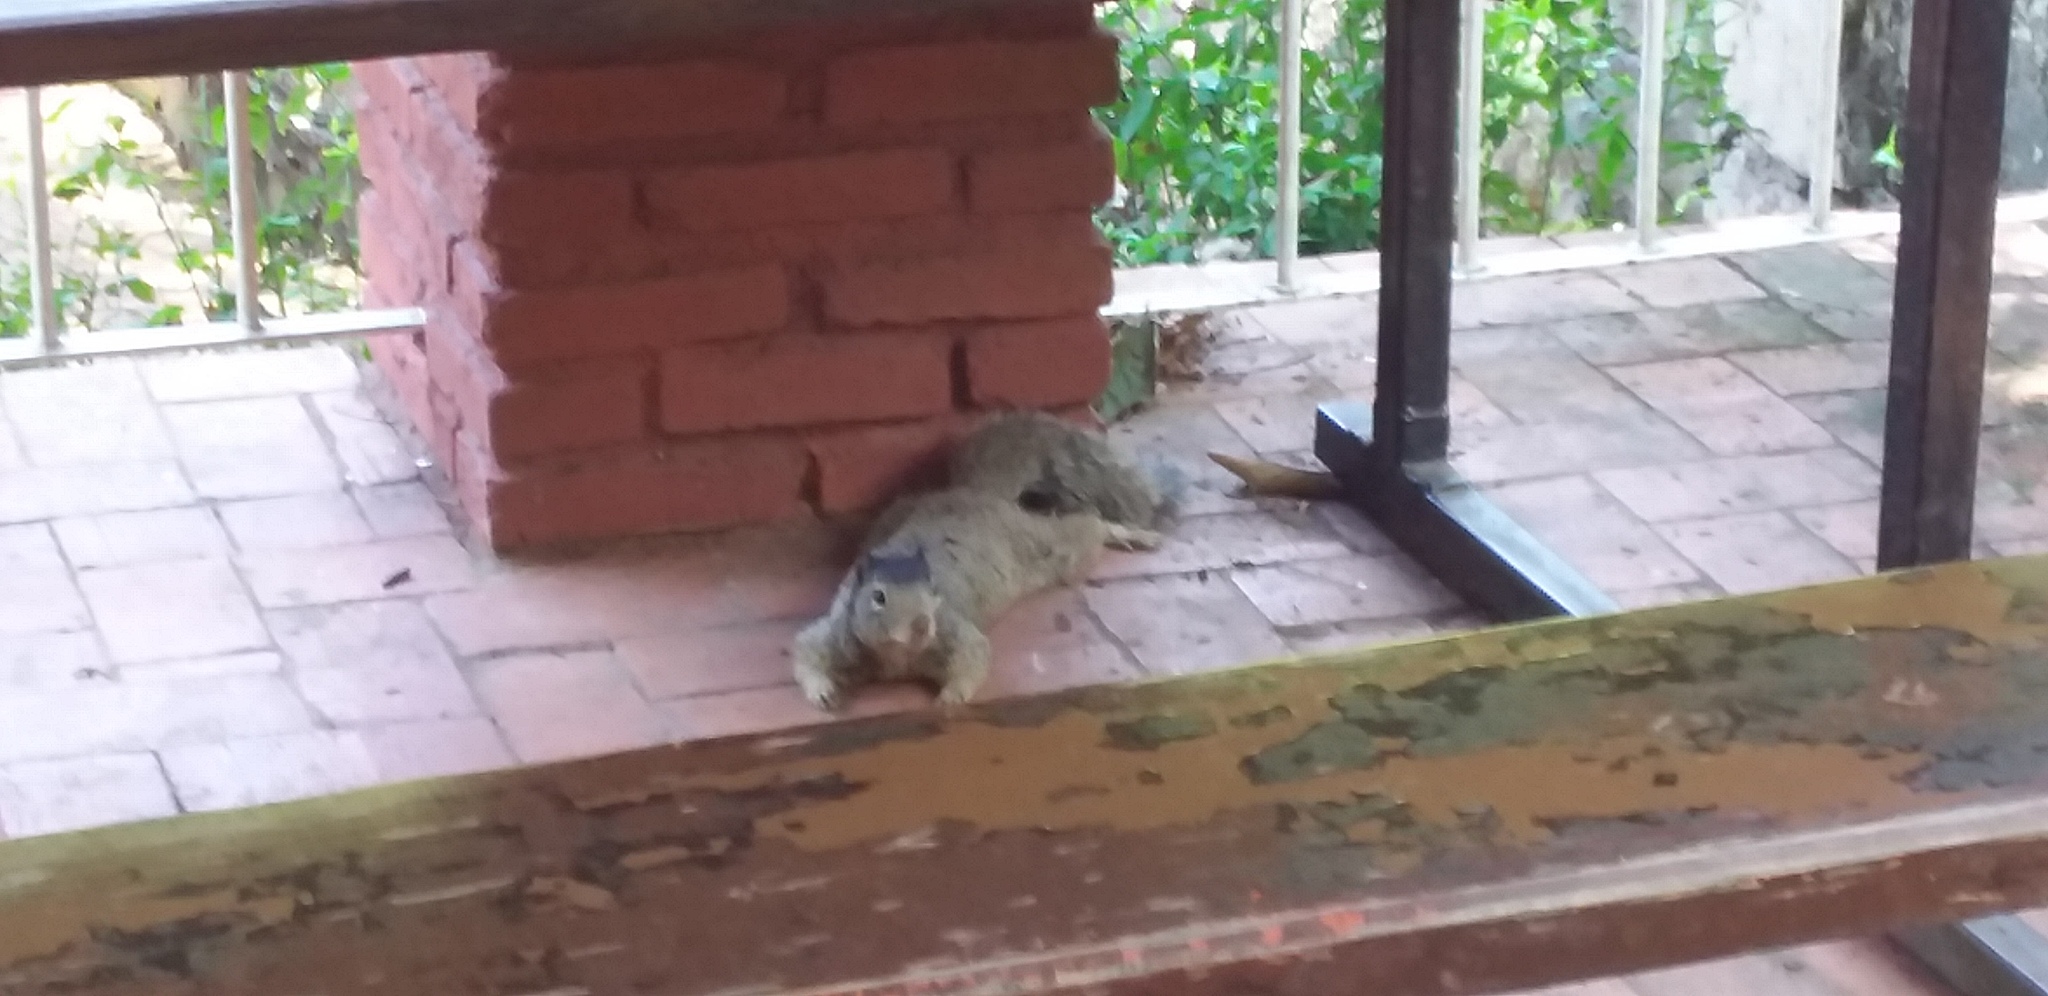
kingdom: Animalia
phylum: Chordata
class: Mammalia
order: Rodentia
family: Sciuridae
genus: Otospermophilus
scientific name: Otospermophilus variegatus
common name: Rock squirrel
